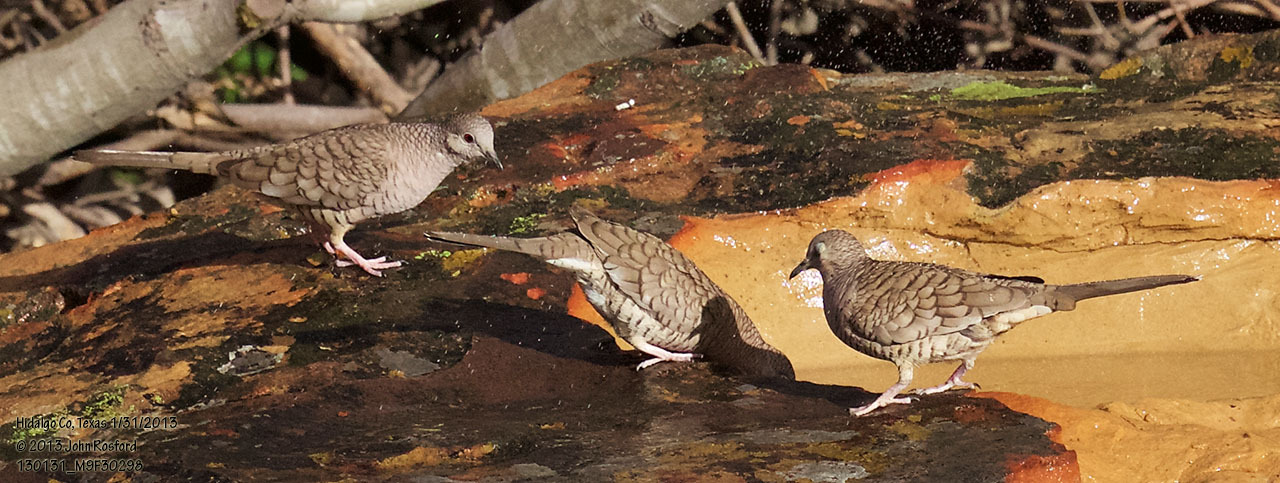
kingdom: Animalia
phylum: Chordata
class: Aves
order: Columbiformes
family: Columbidae
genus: Columbina
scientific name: Columbina inca
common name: Inca dove
